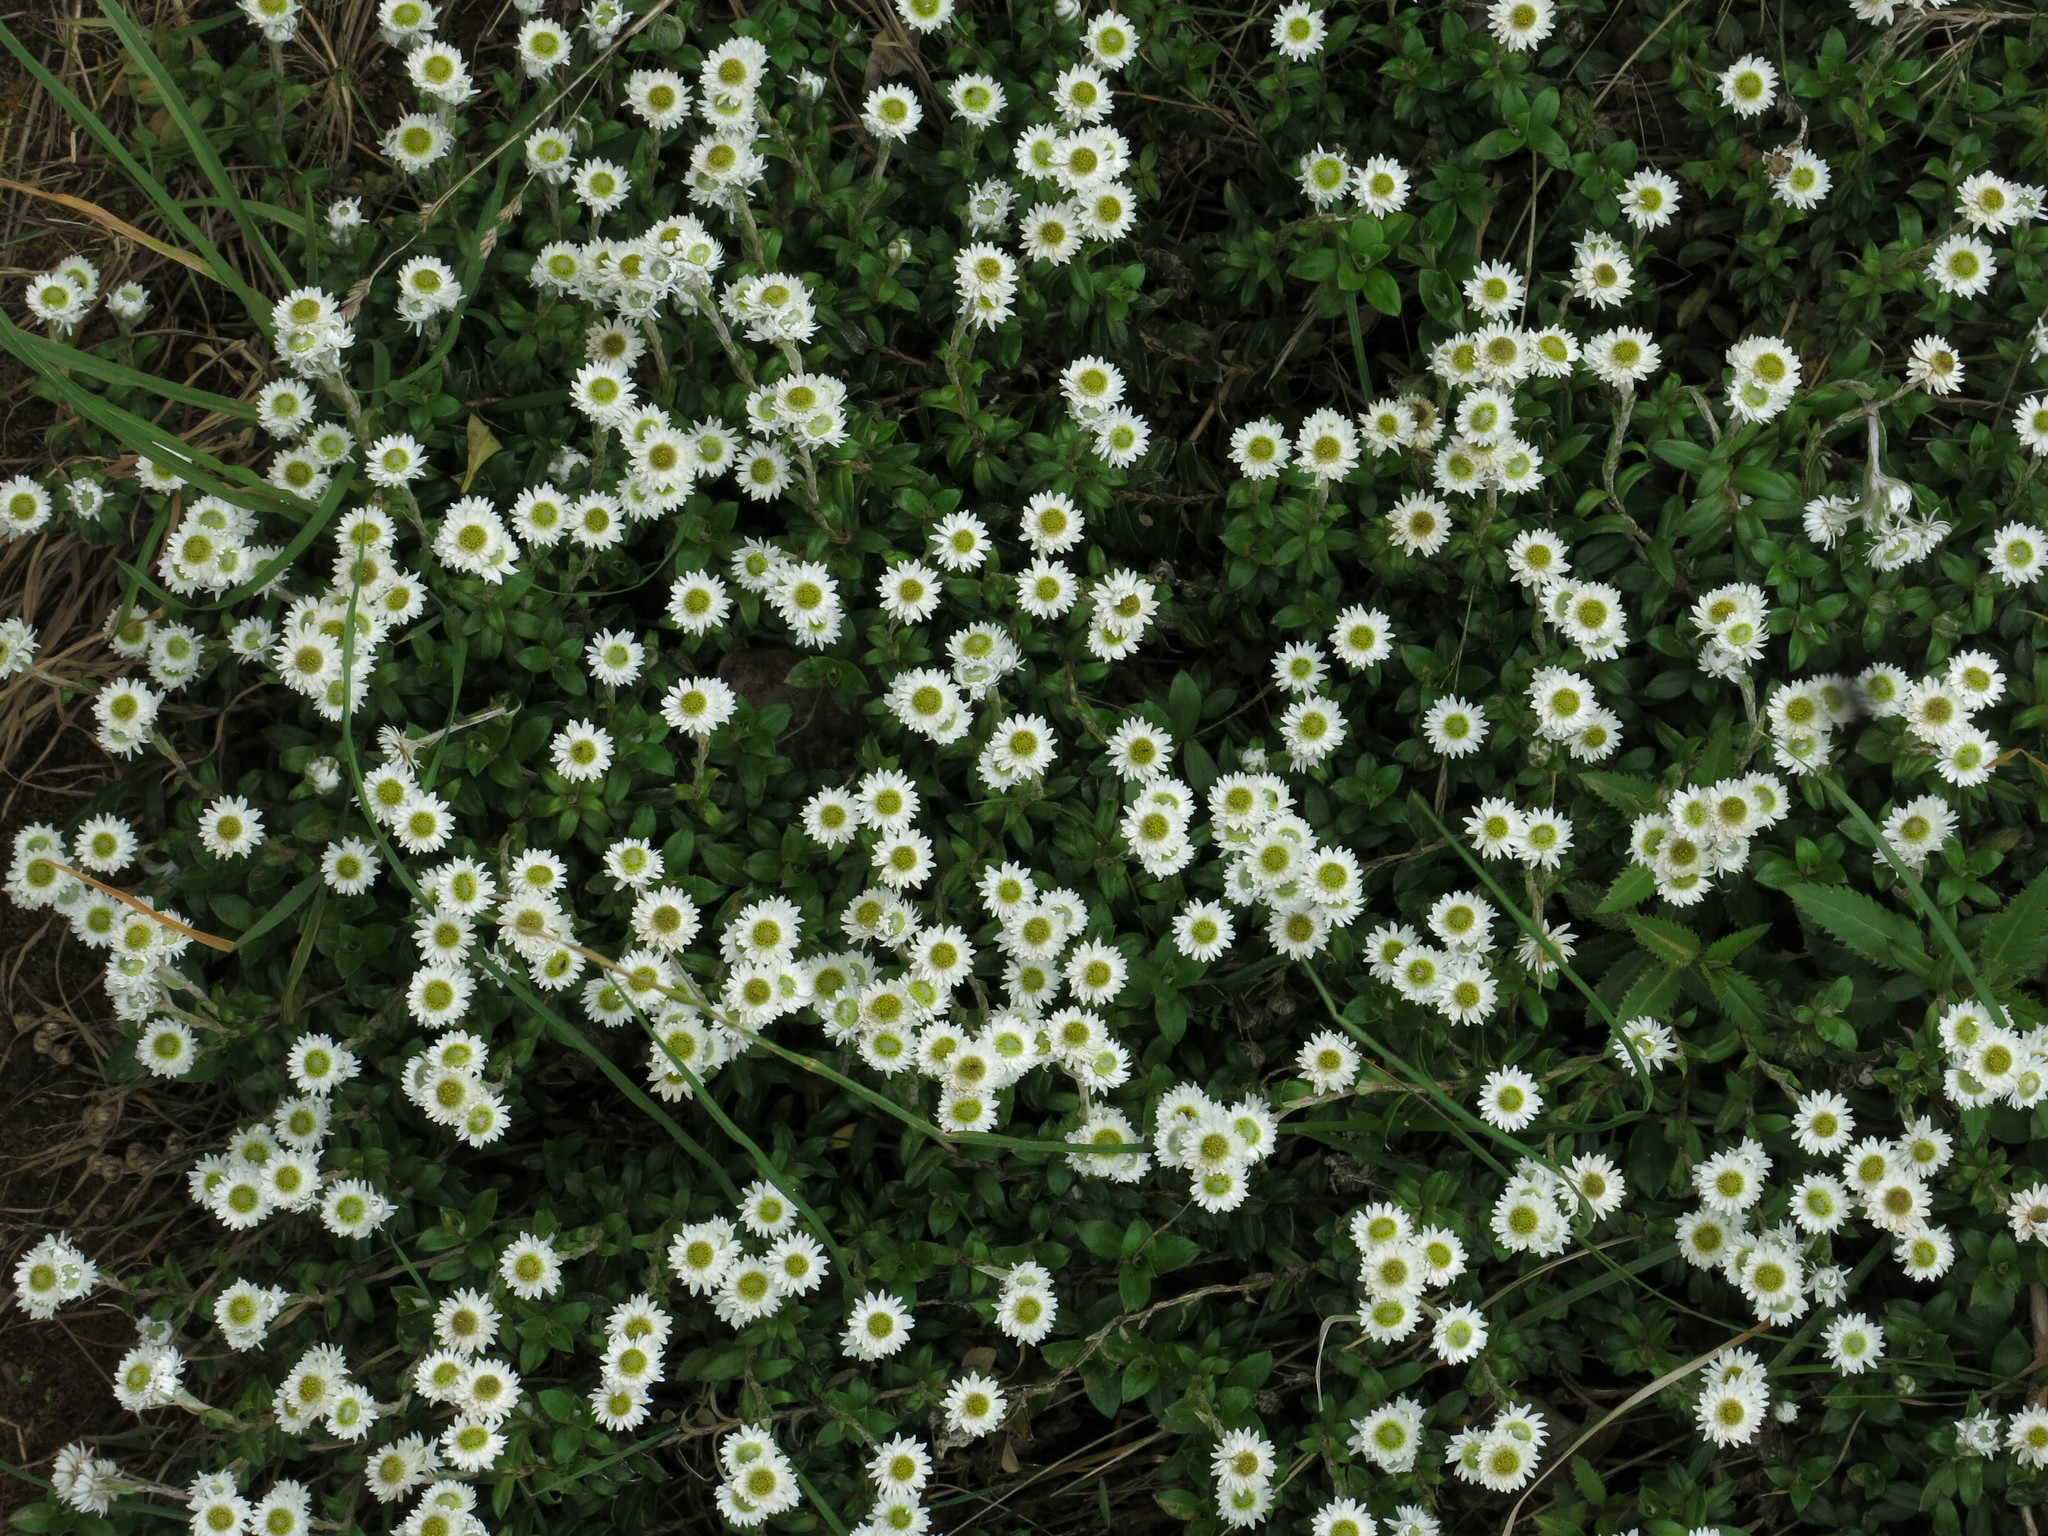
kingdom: Plantae
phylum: Tracheophyta
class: Magnoliopsida
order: Asterales
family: Asteraceae
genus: Anaphalioides
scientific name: Anaphalioides hookeri
